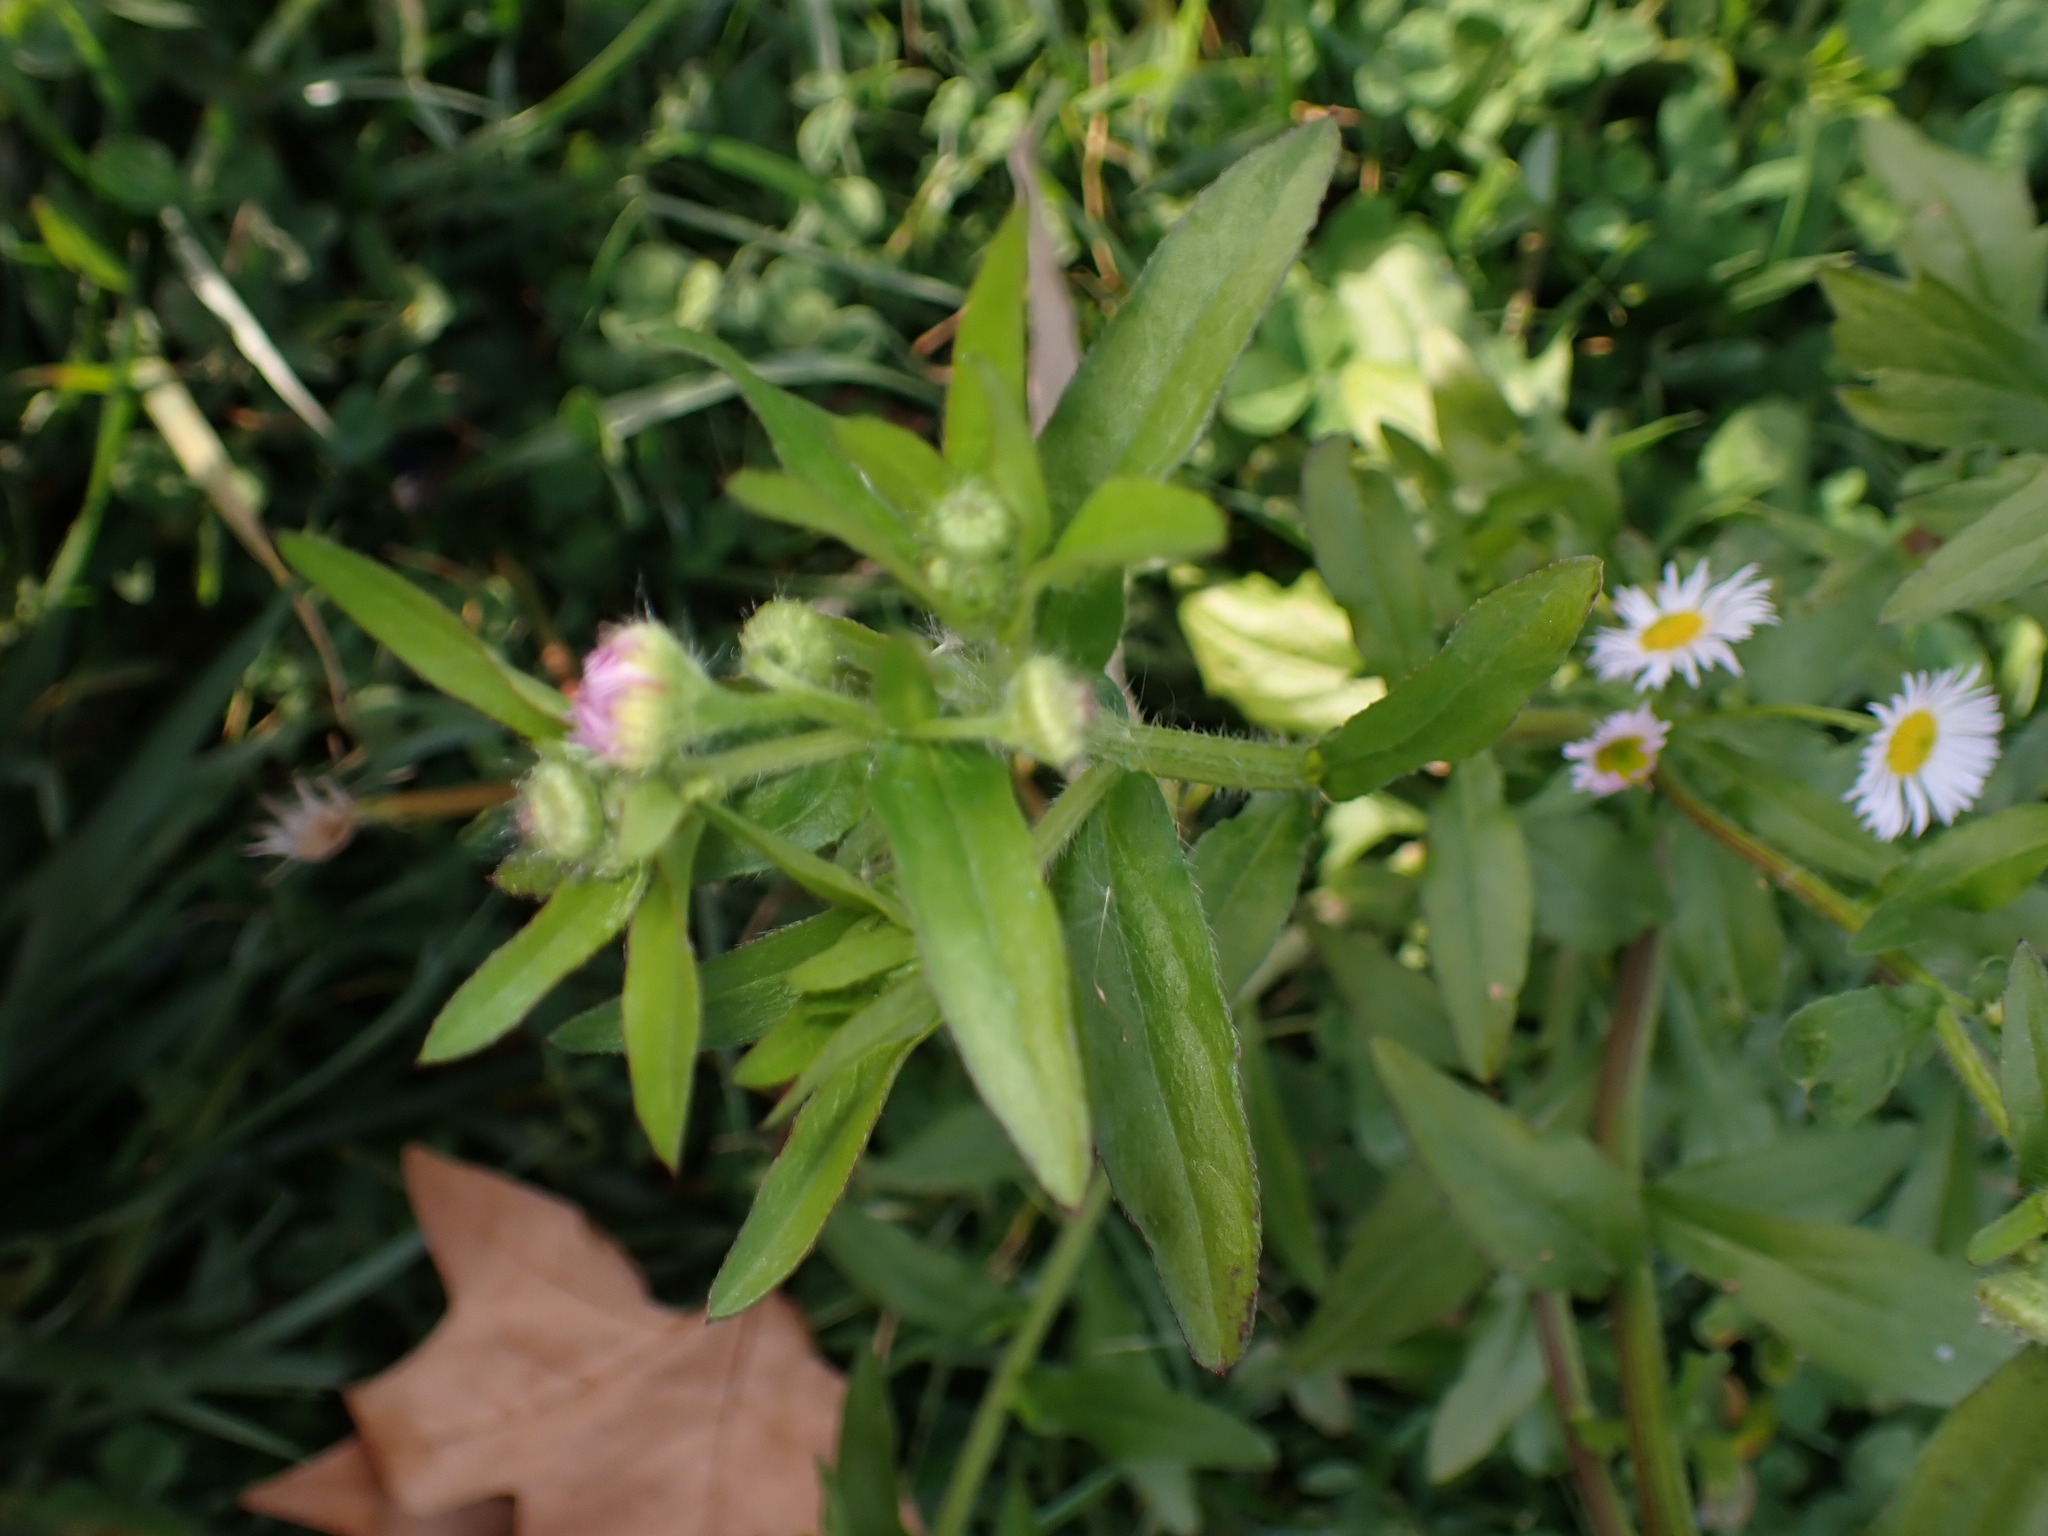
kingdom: Plantae
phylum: Tracheophyta
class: Magnoliopsida
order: Asterales
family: Asteraceae
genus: Erigeron
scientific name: Erigeron annuus
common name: Tall fleabane
